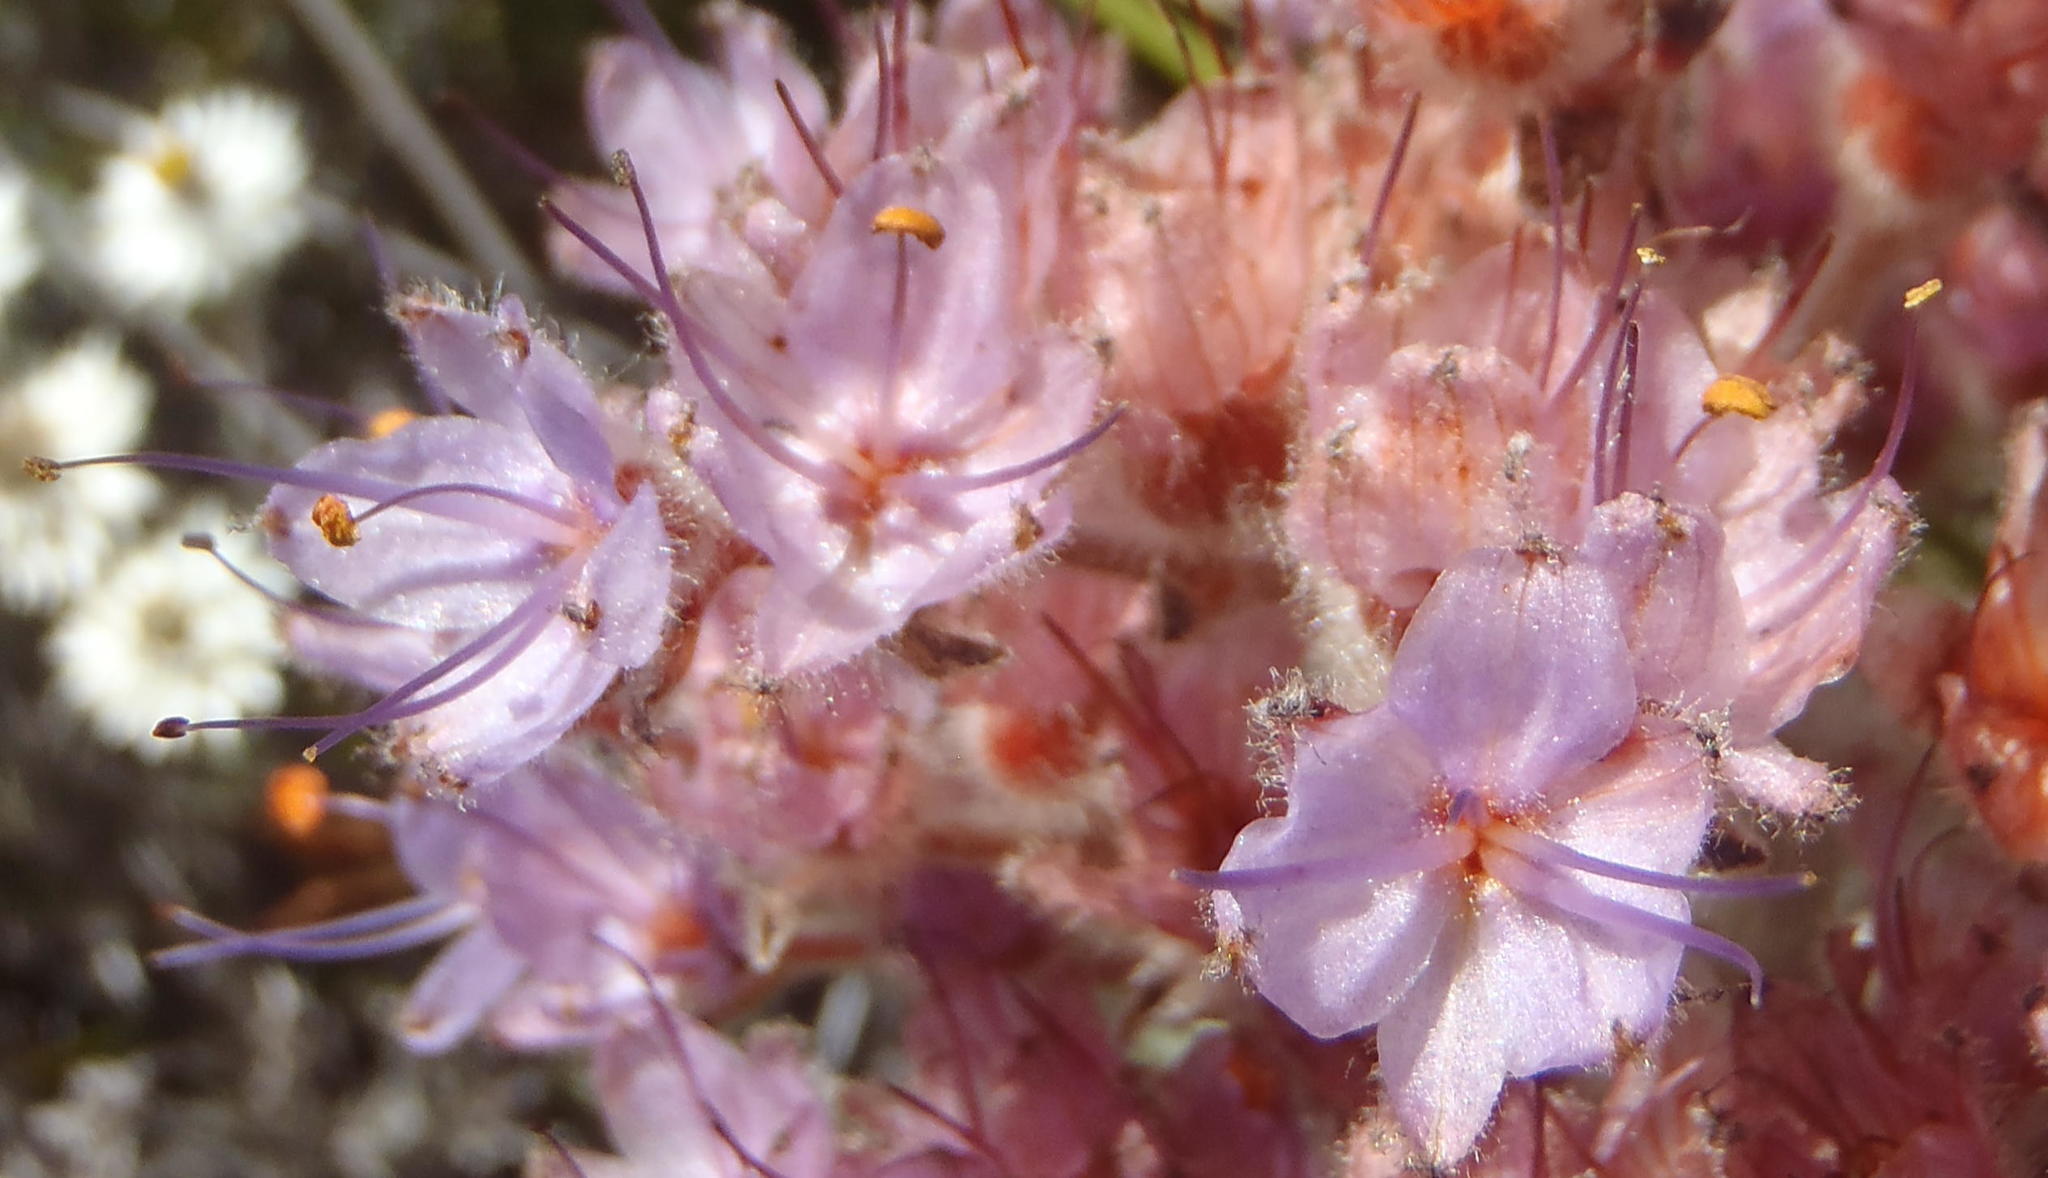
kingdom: Plantae
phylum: Tracheophyta
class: Liliopsida
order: Commelinales
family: Haemodoraceae
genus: Dilatris
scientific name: Dilatris ixioides
